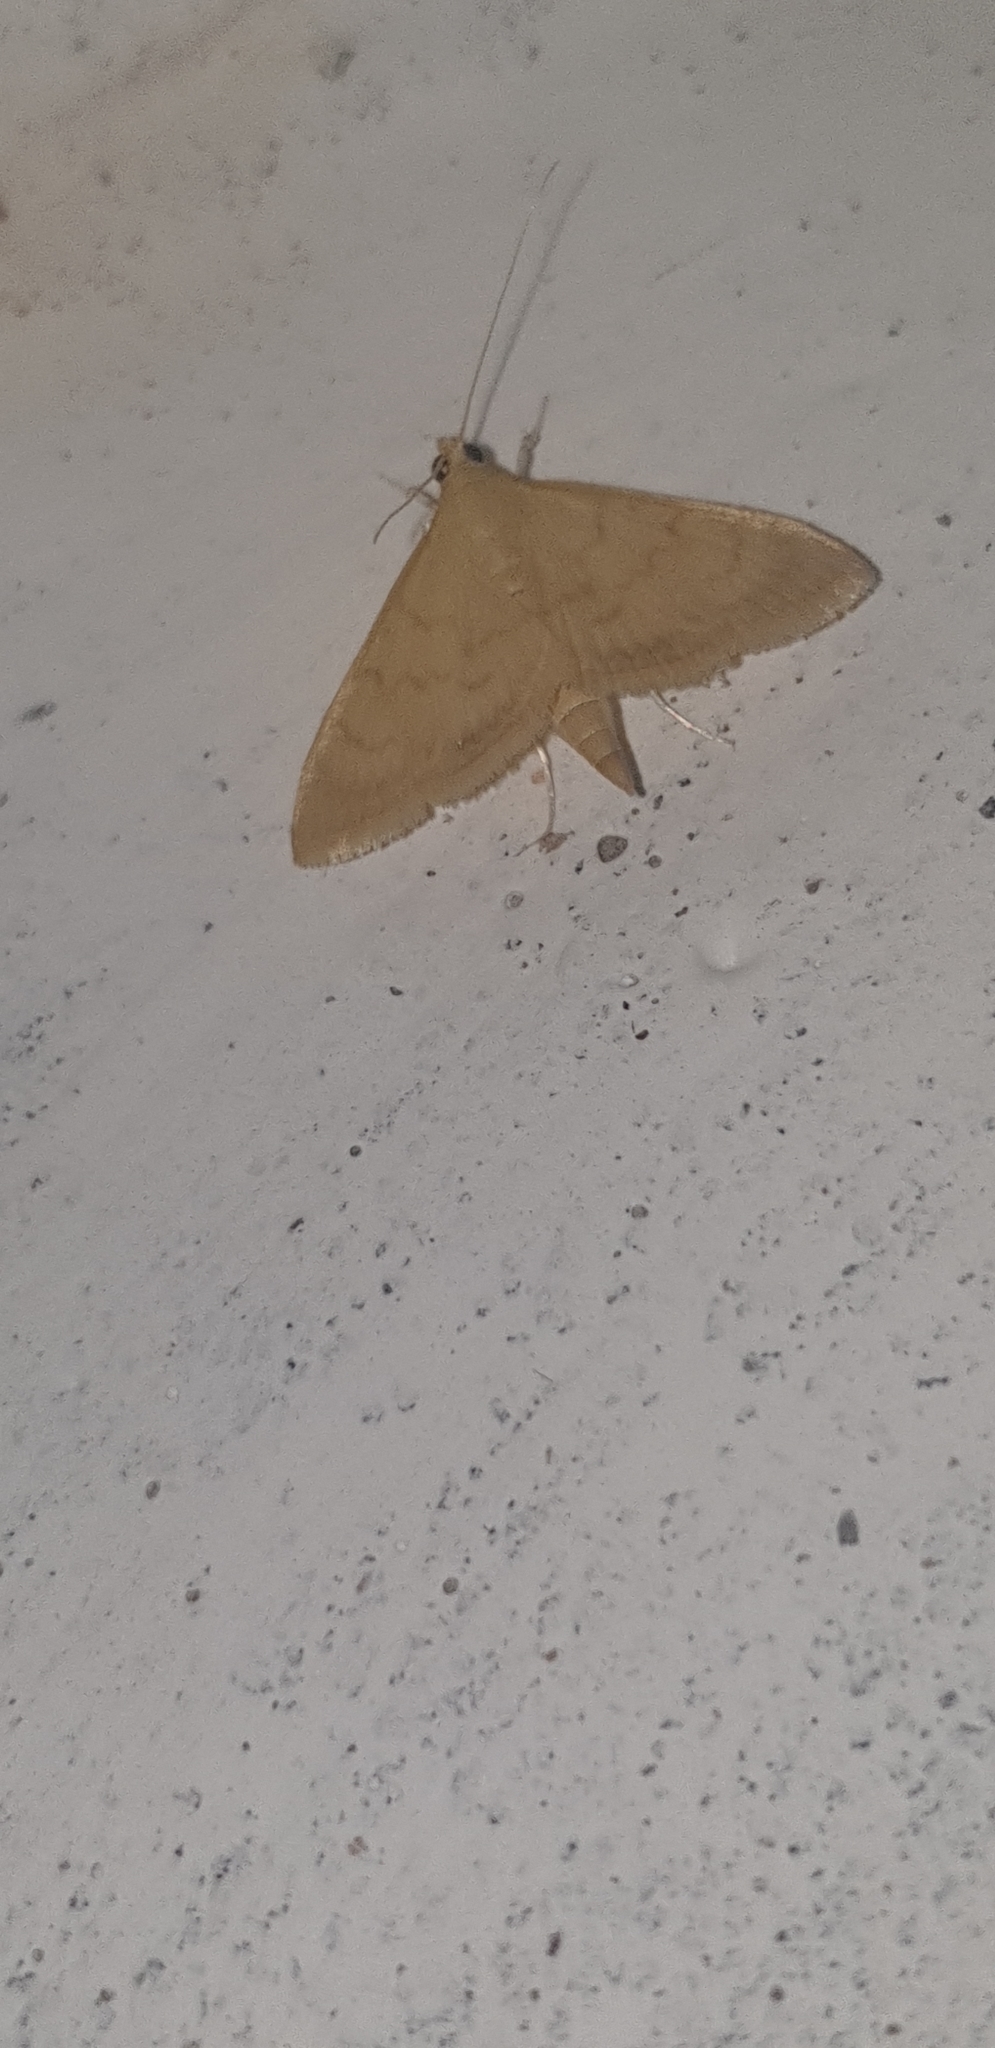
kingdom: Animalia
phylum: Arthropoda
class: Insecta
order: Lepidoptera
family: Crambidae
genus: Condylorrhiza
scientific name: Condylorrhiza vestigialis
